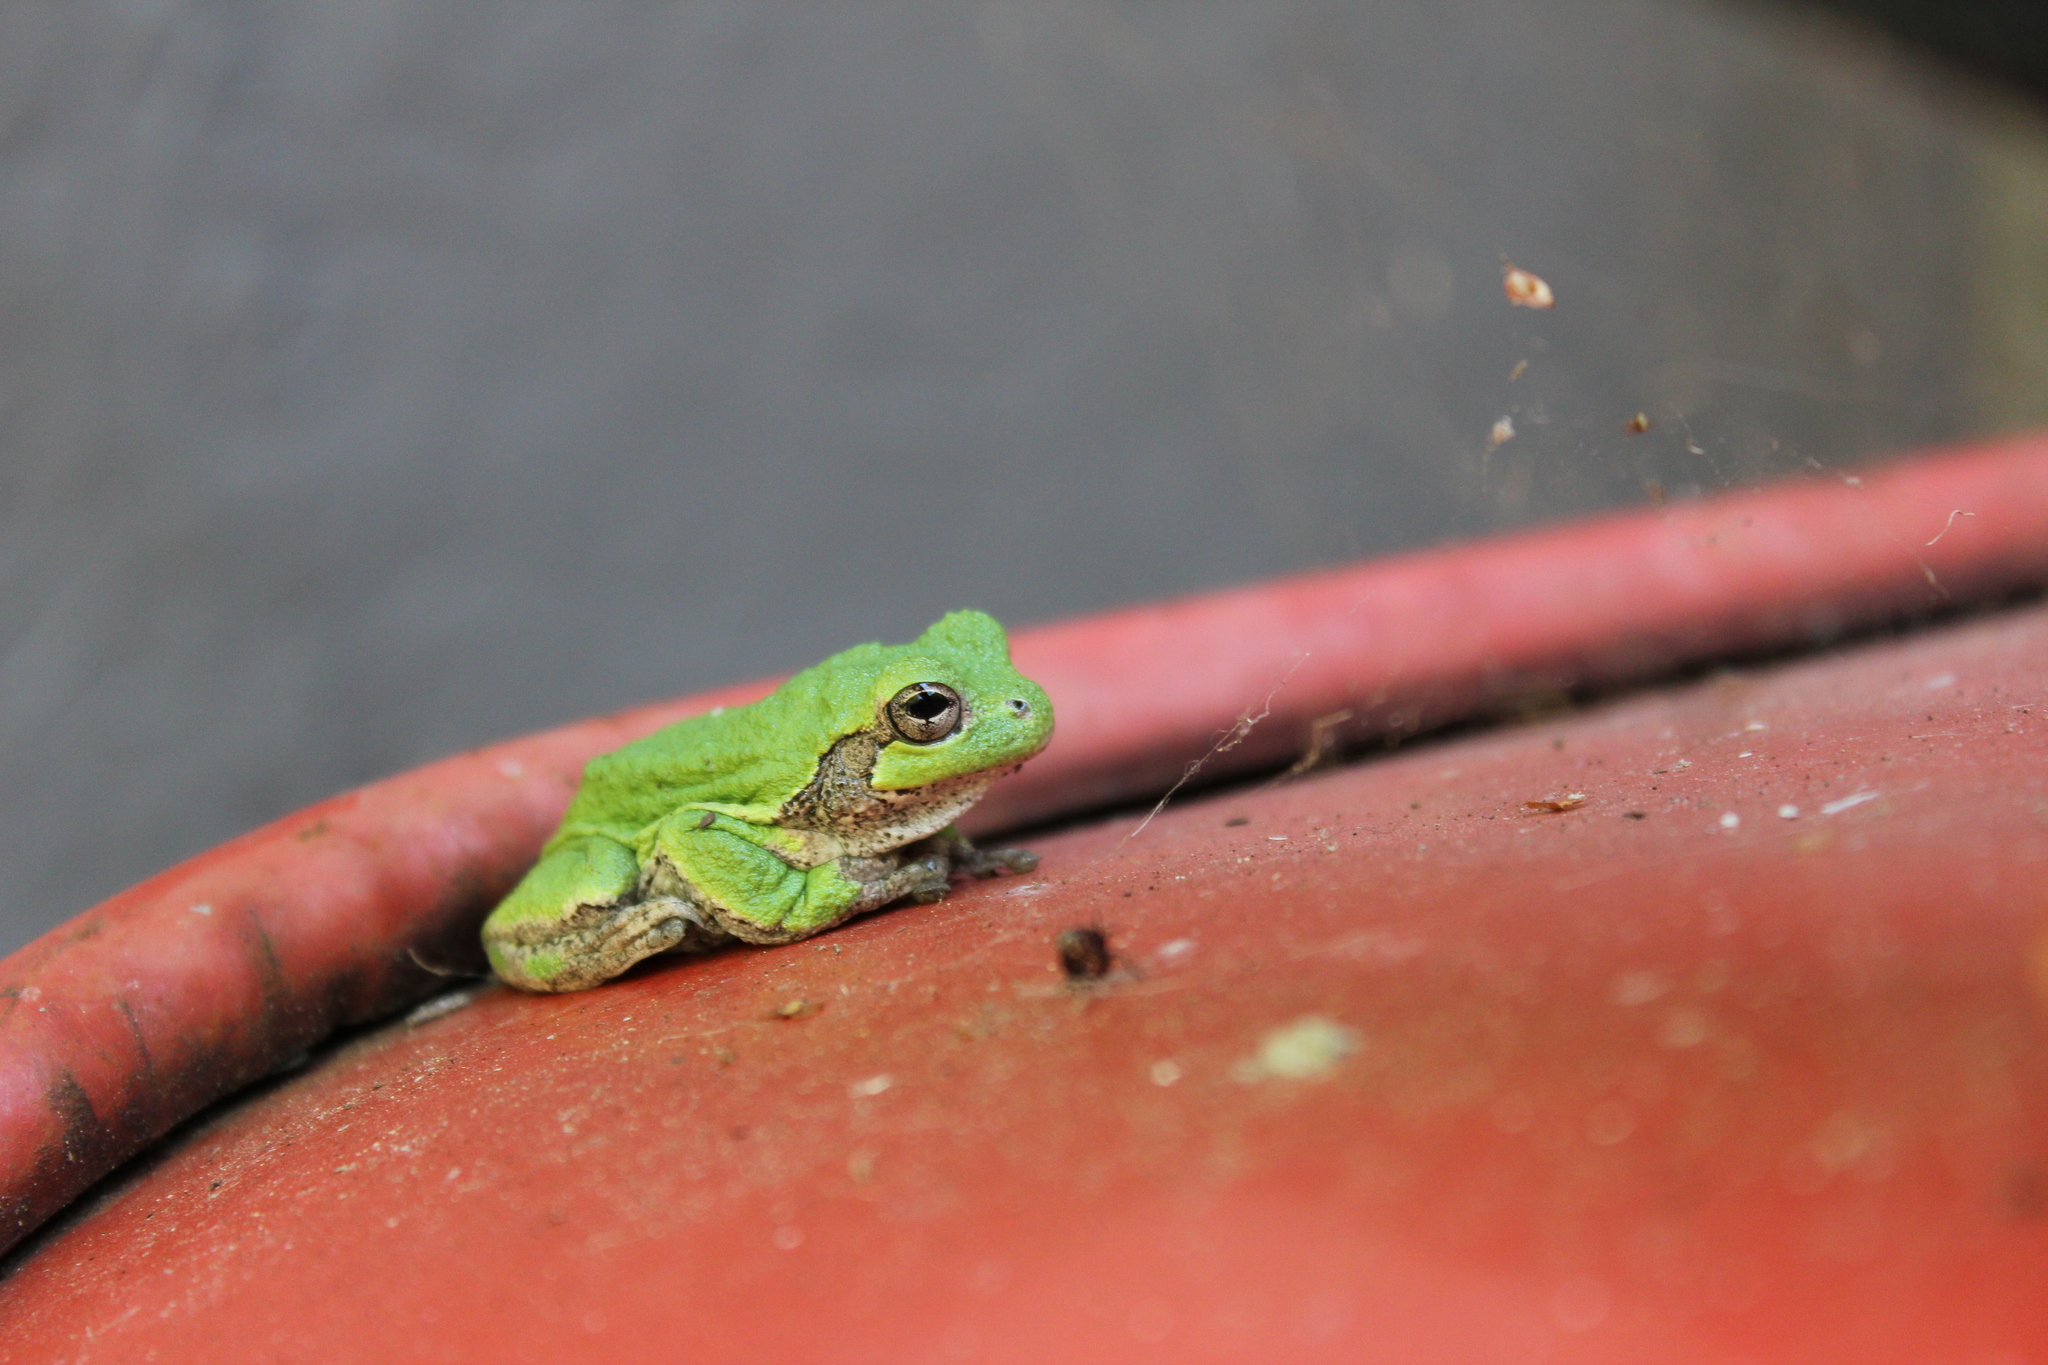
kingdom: Animalia
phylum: Chordata
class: Amphibia
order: Anura
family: Hylidae
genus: Dryophytes
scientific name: Dryophytes versicolor
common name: Gray treefrog
